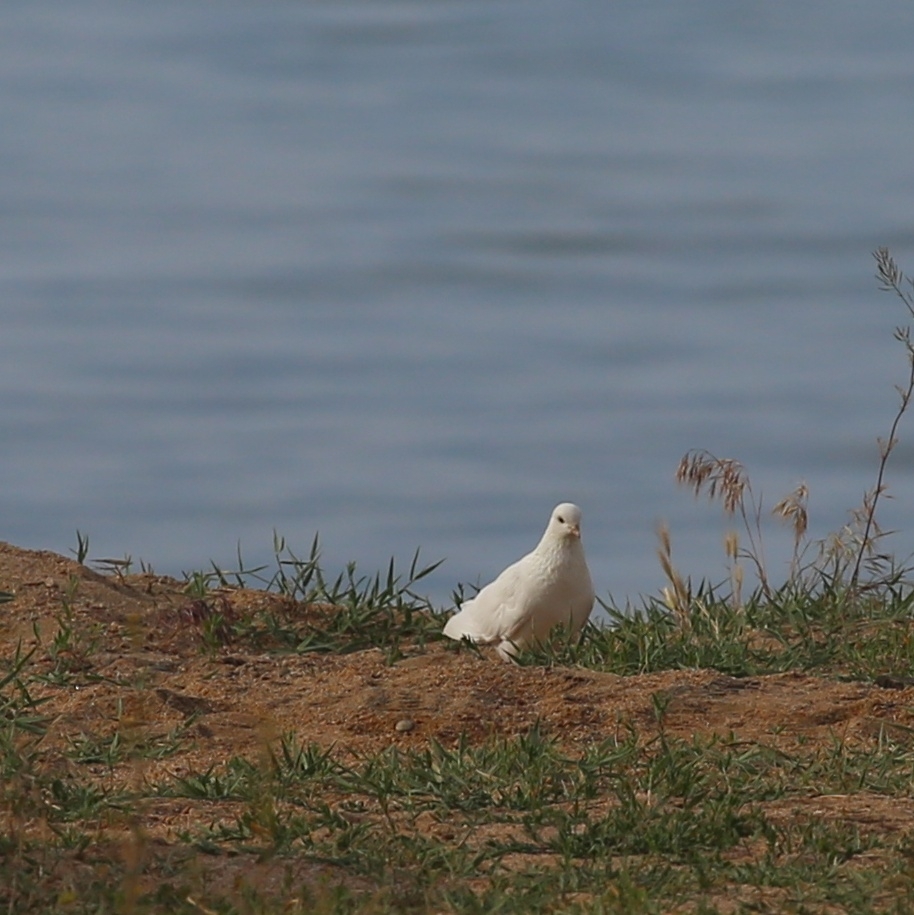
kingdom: Animalia
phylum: Chordata
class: Aves
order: Columbiformes
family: Columbidae
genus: Columba
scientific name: Columba livia
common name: Rock pigeon
